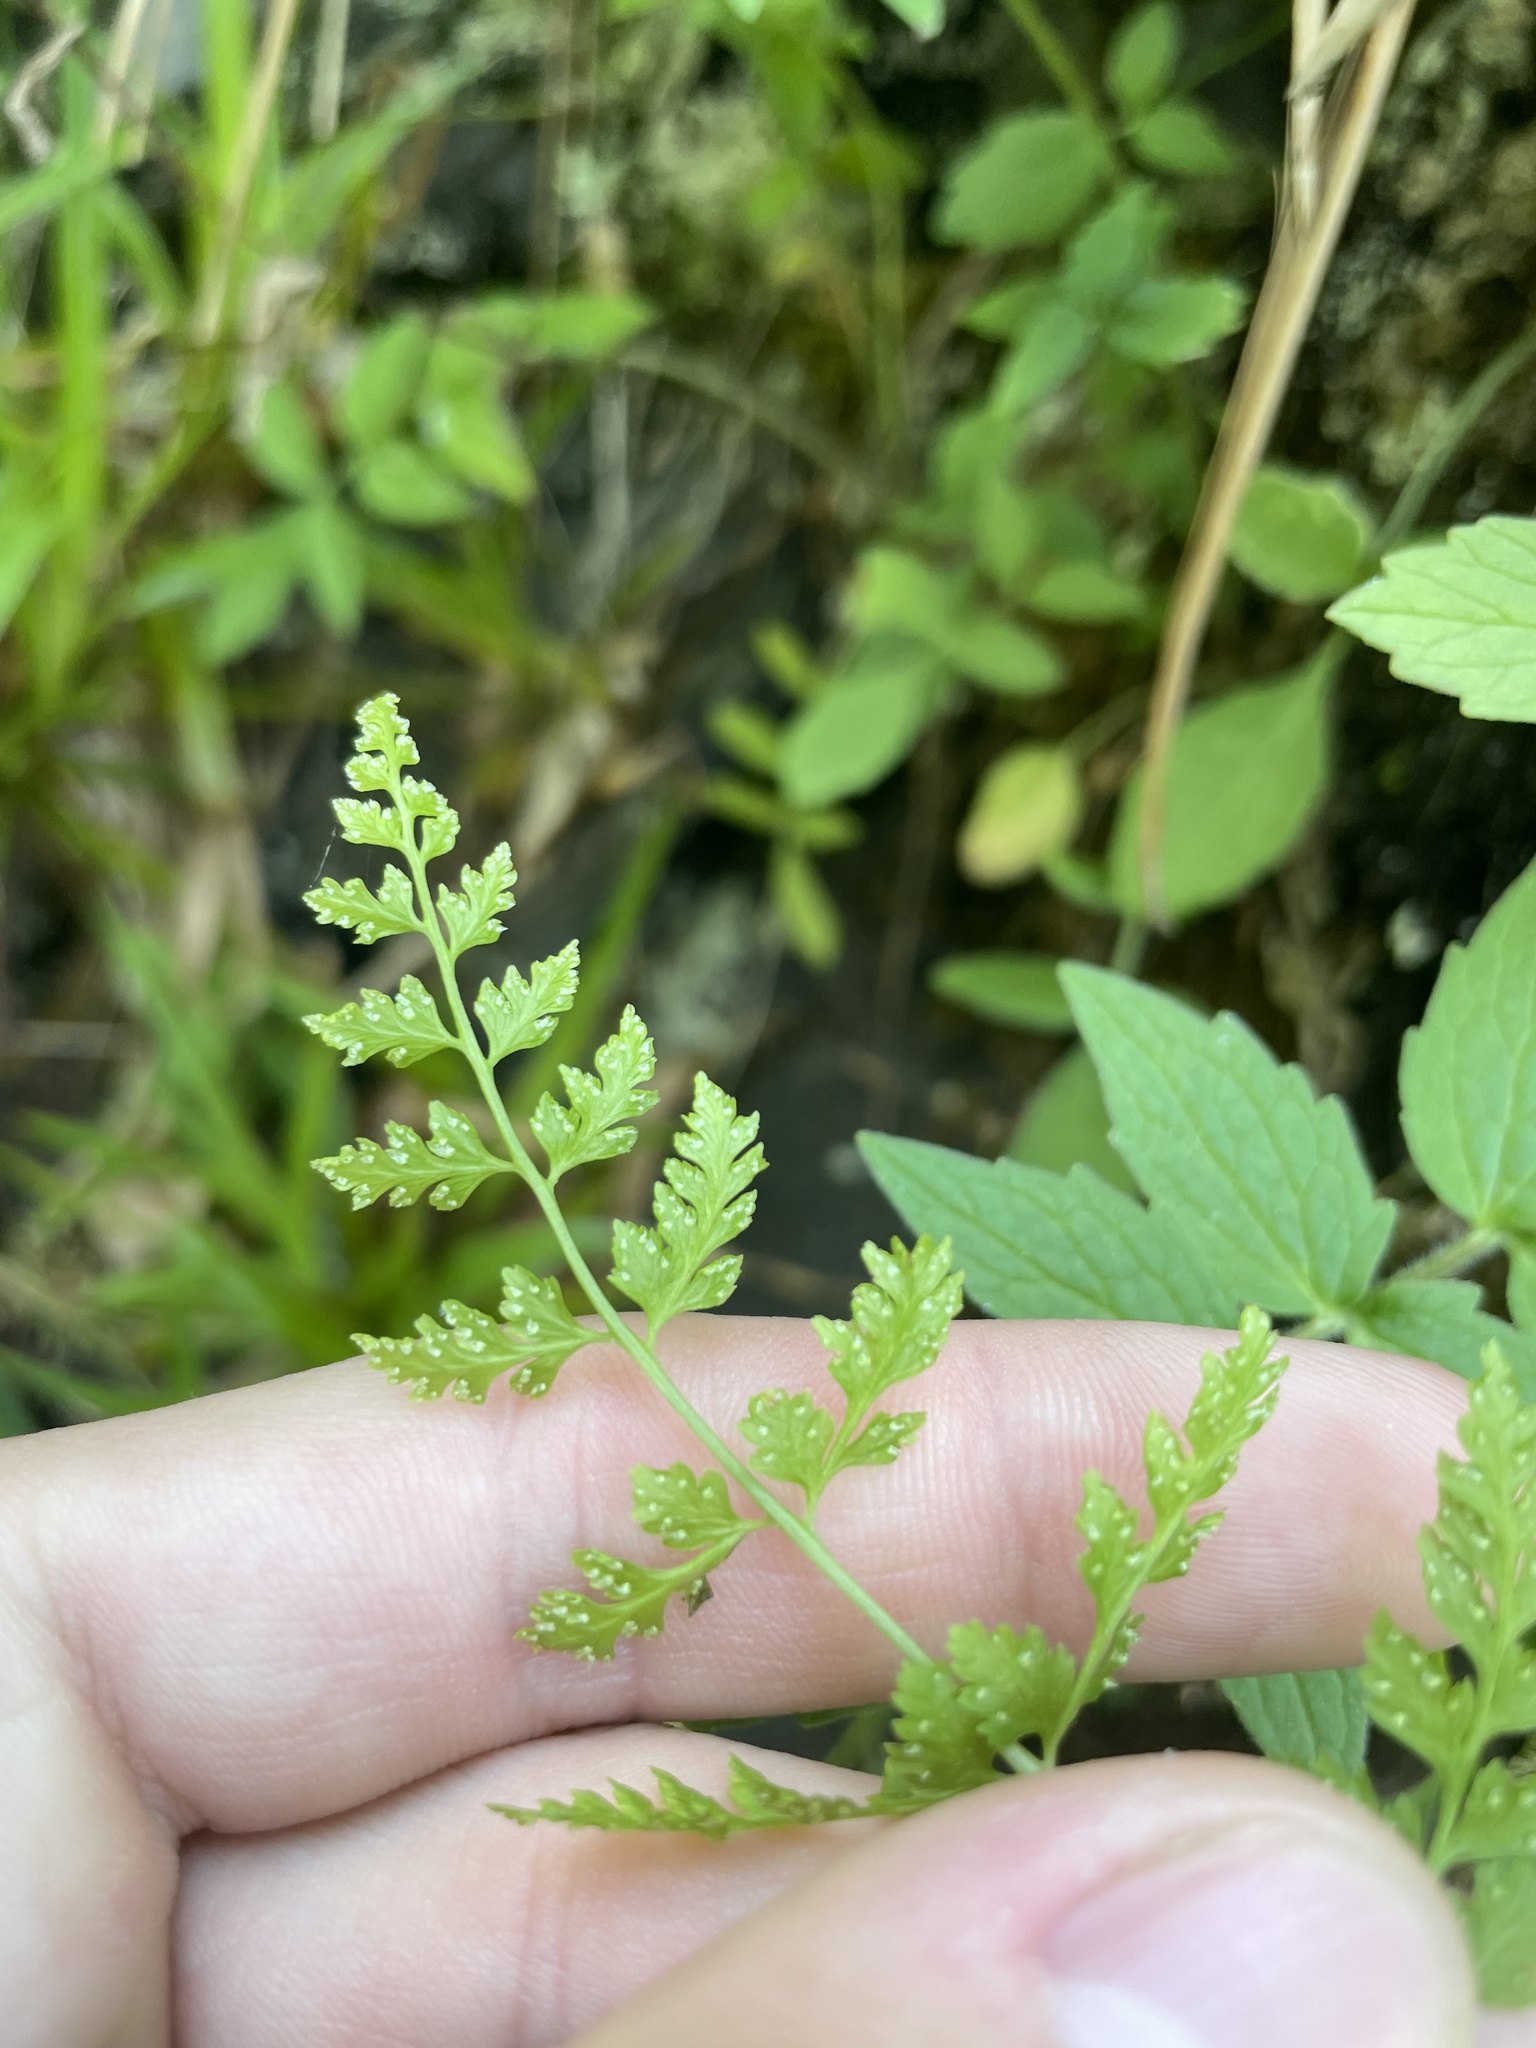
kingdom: Plantae
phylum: Tracheophyta
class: Polypodiopsida
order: Polypodiales
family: Cystopteridaceae
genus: Cystopteris
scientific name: Cystopteris fragilis
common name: Brittle bladder fern
